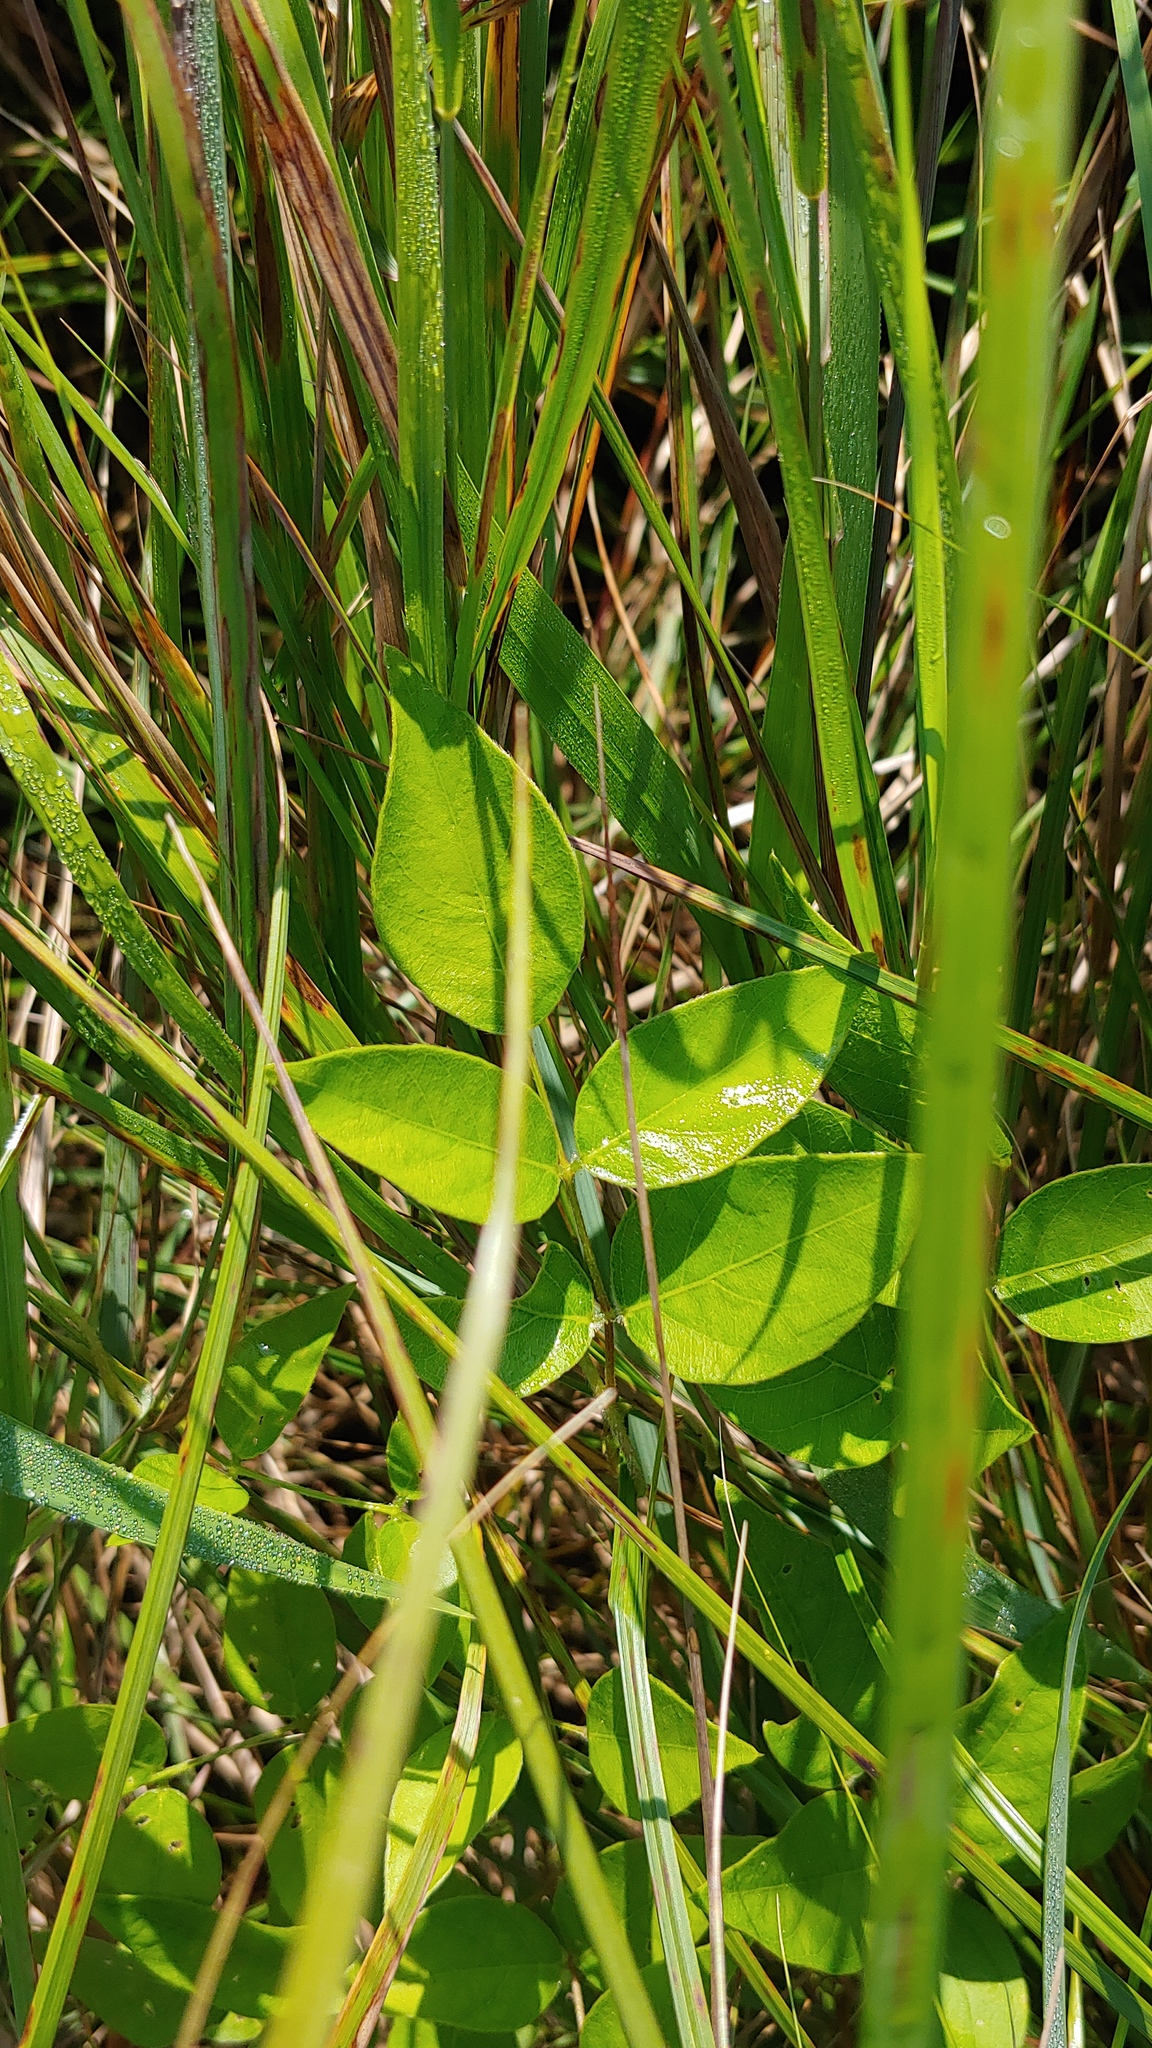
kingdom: Plantae
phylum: Tracheophyta
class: Magnoliopsida
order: Fabales
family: Fabaceae
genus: Apios
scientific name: Apios americana
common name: American potato-bean
